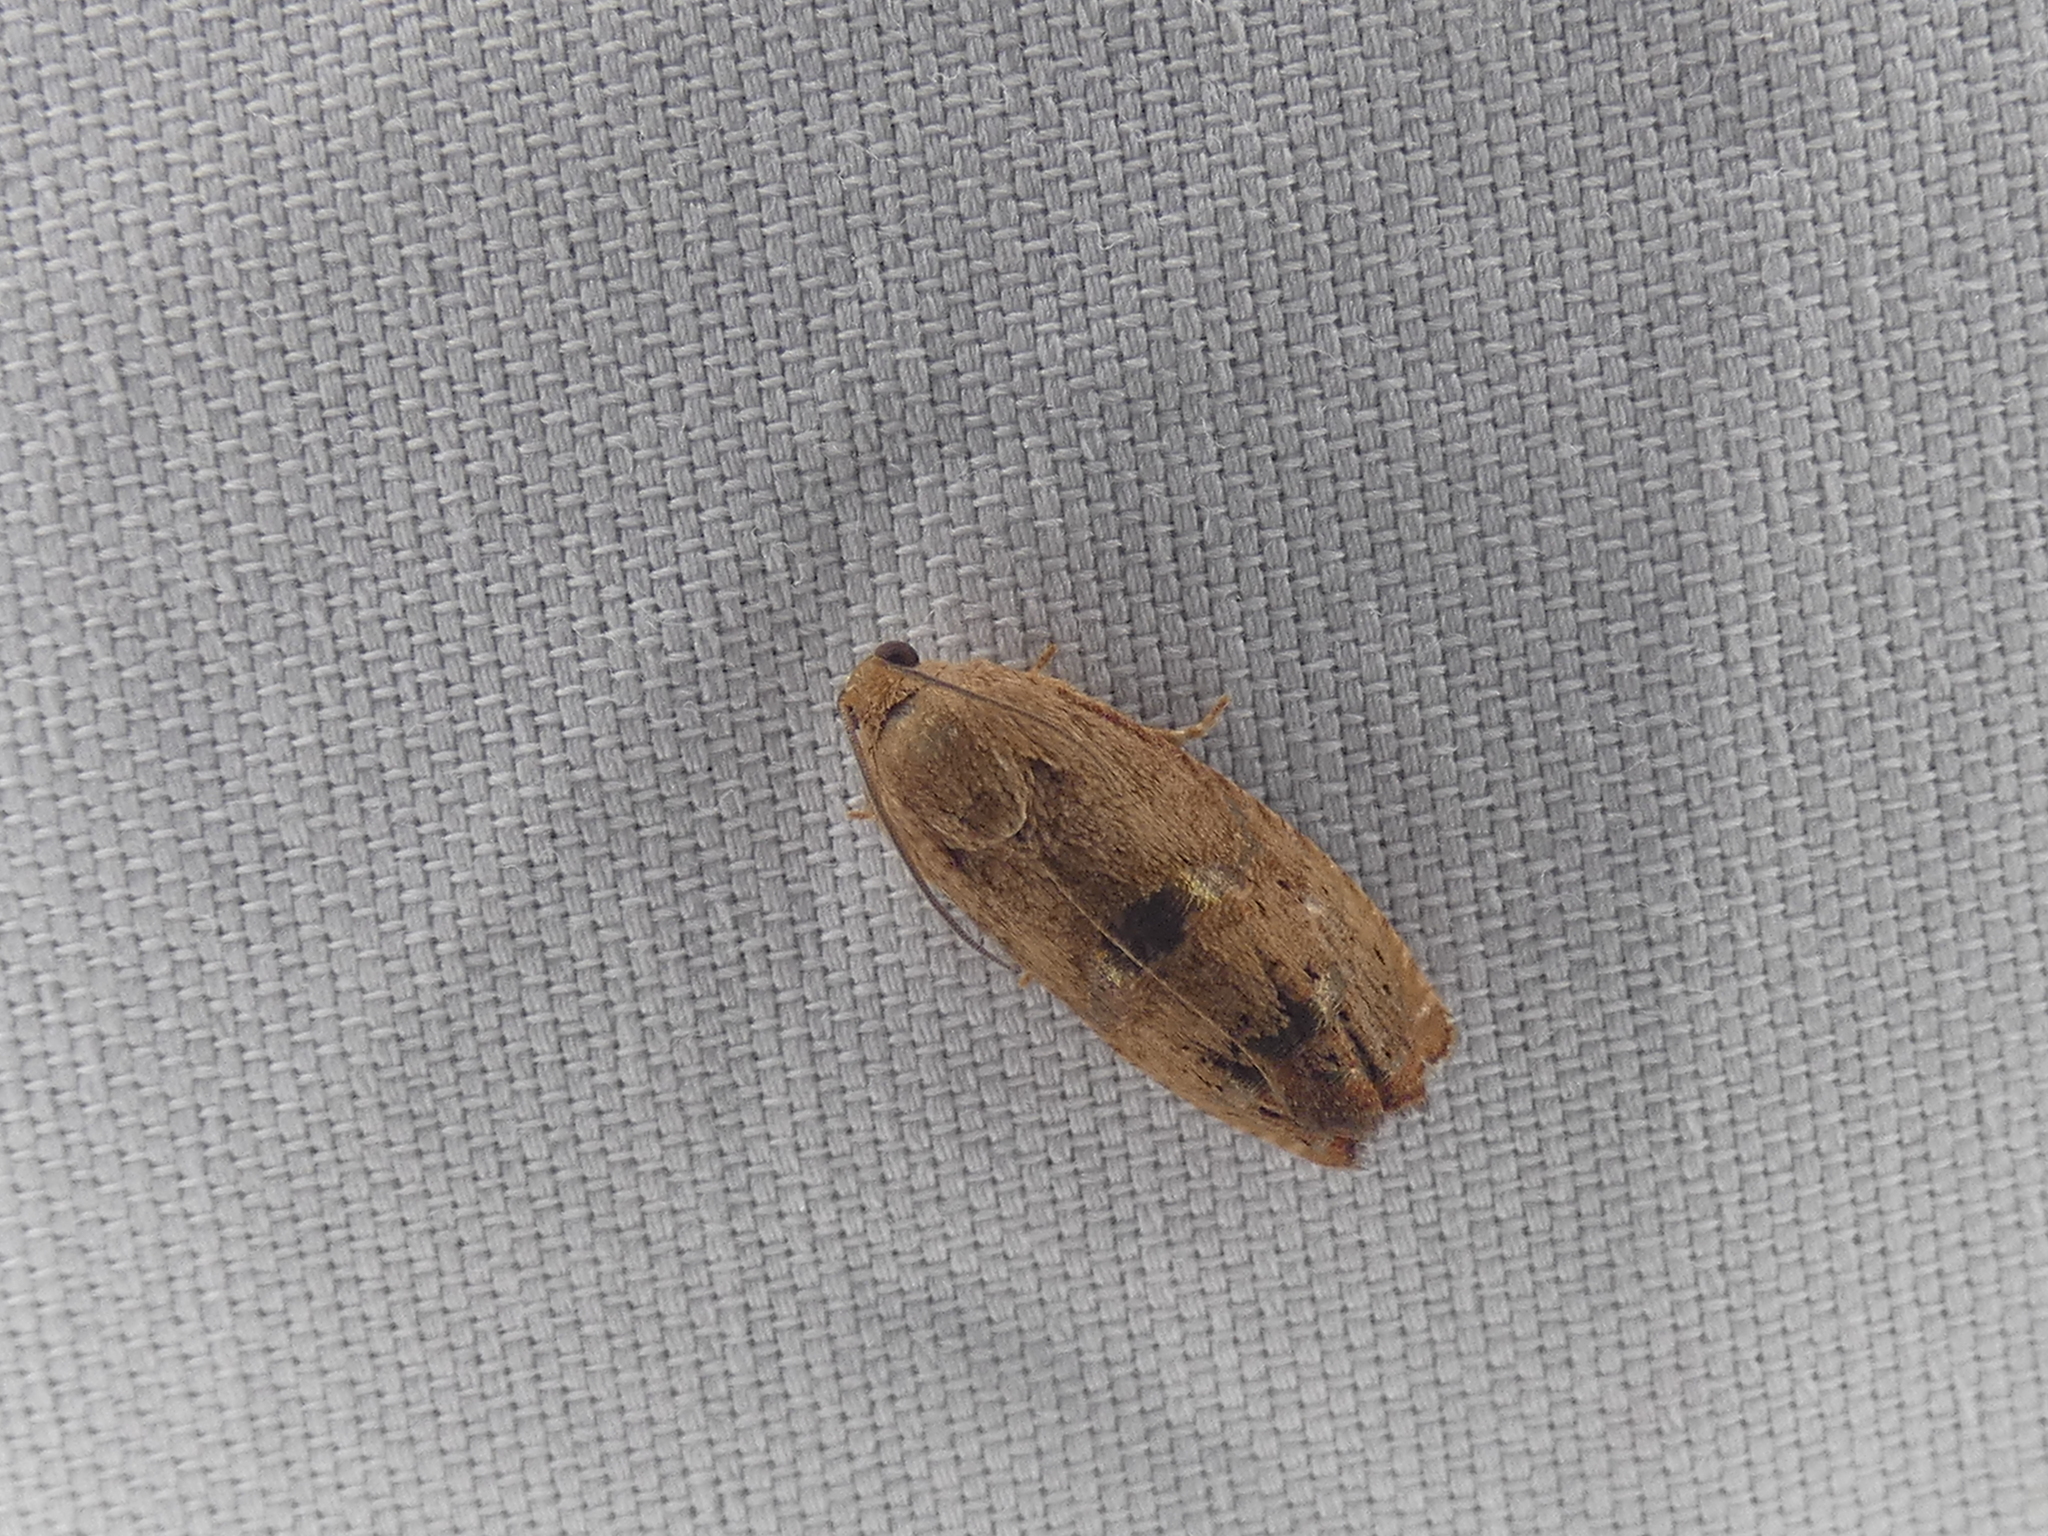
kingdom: Animalia
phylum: Arthropoda
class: Insecta
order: Lepidoptera
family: Tortricidae
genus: Cydia
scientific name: Cydia latiferreana
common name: Filbertworm moth
